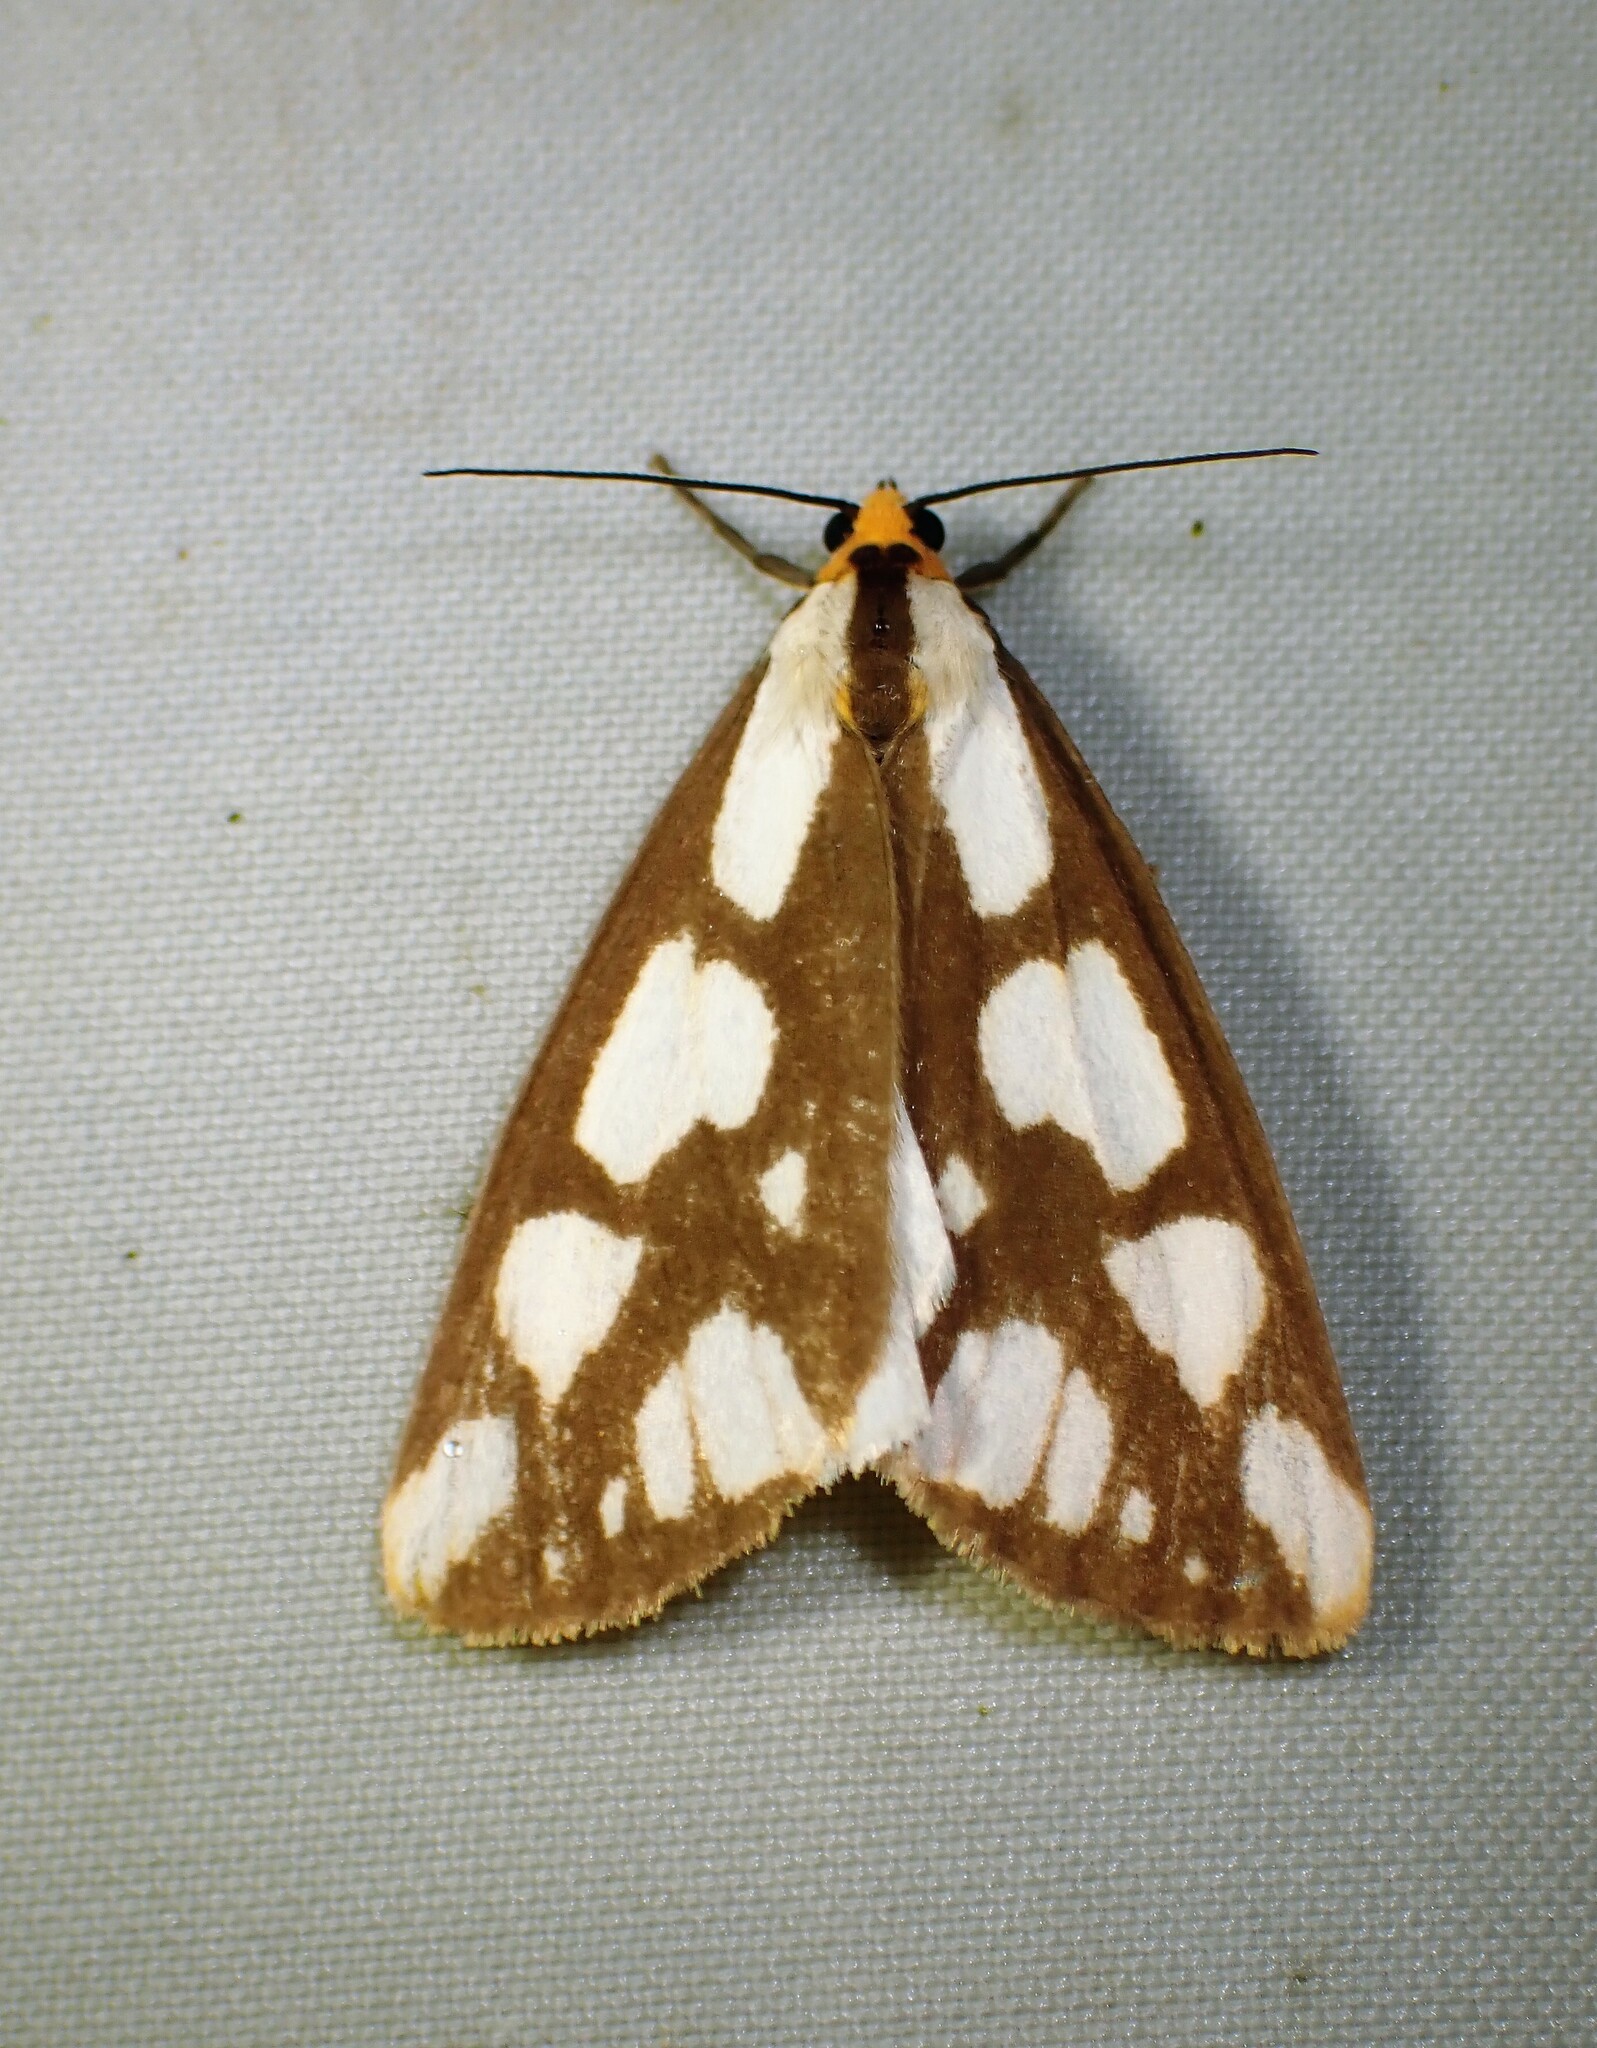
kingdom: Animalia
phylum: Arthropoda
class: Insecta
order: Lepidoptera
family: Erebidae
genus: Haploa
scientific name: Haploa confusa
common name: Confused haploa moth
